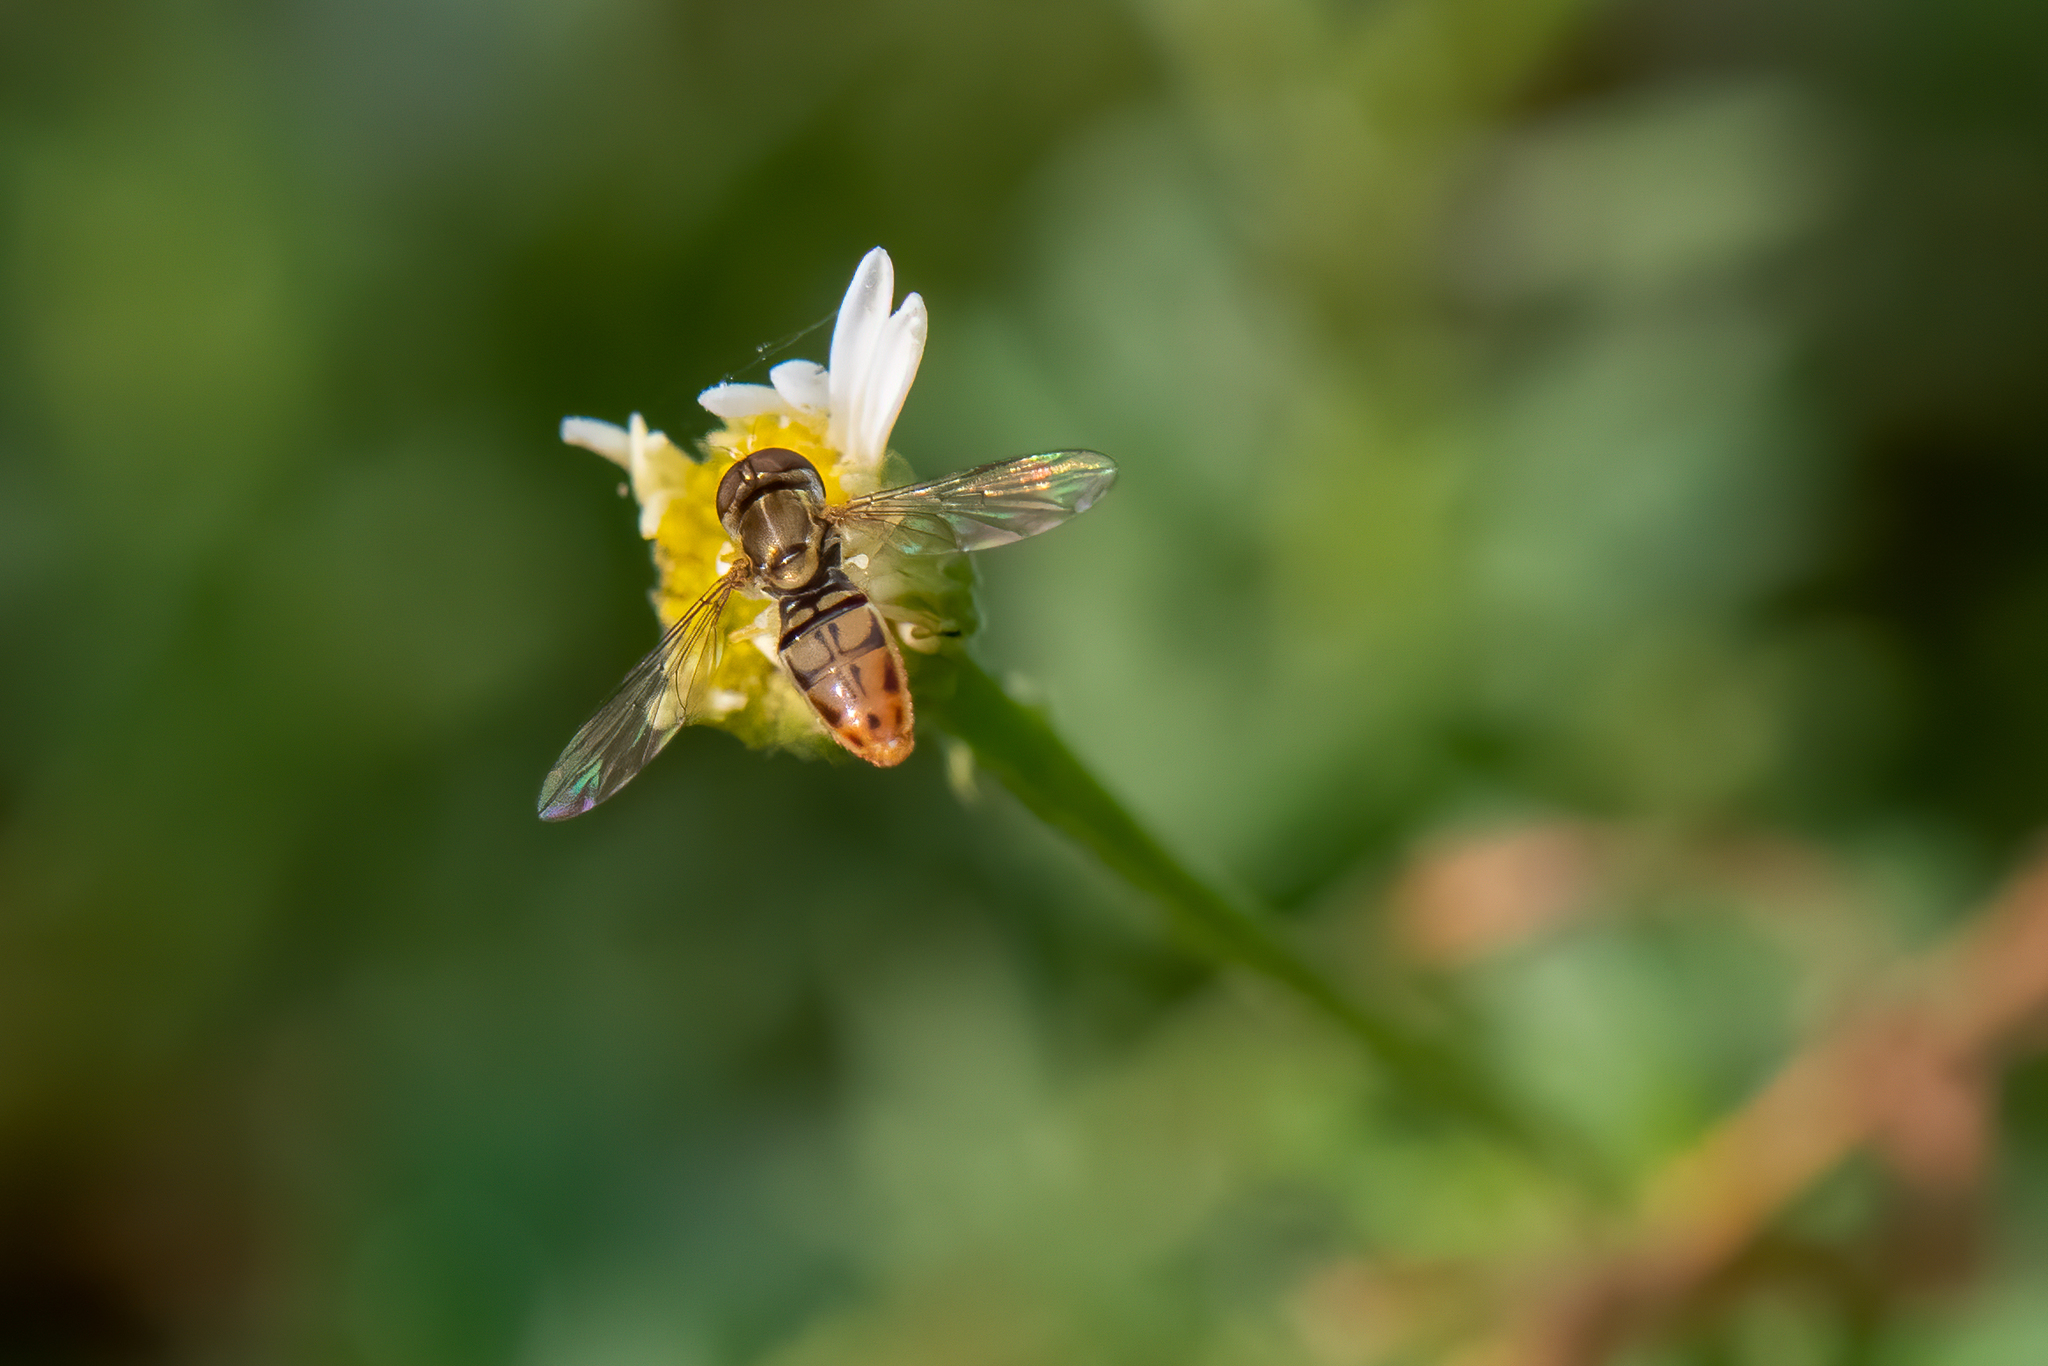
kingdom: Animalia
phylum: Arthropoda
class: Insecta
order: Diptera
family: Syrphidae
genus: Toxomerus
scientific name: Toxomerus marginatus
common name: Syrphid fly
